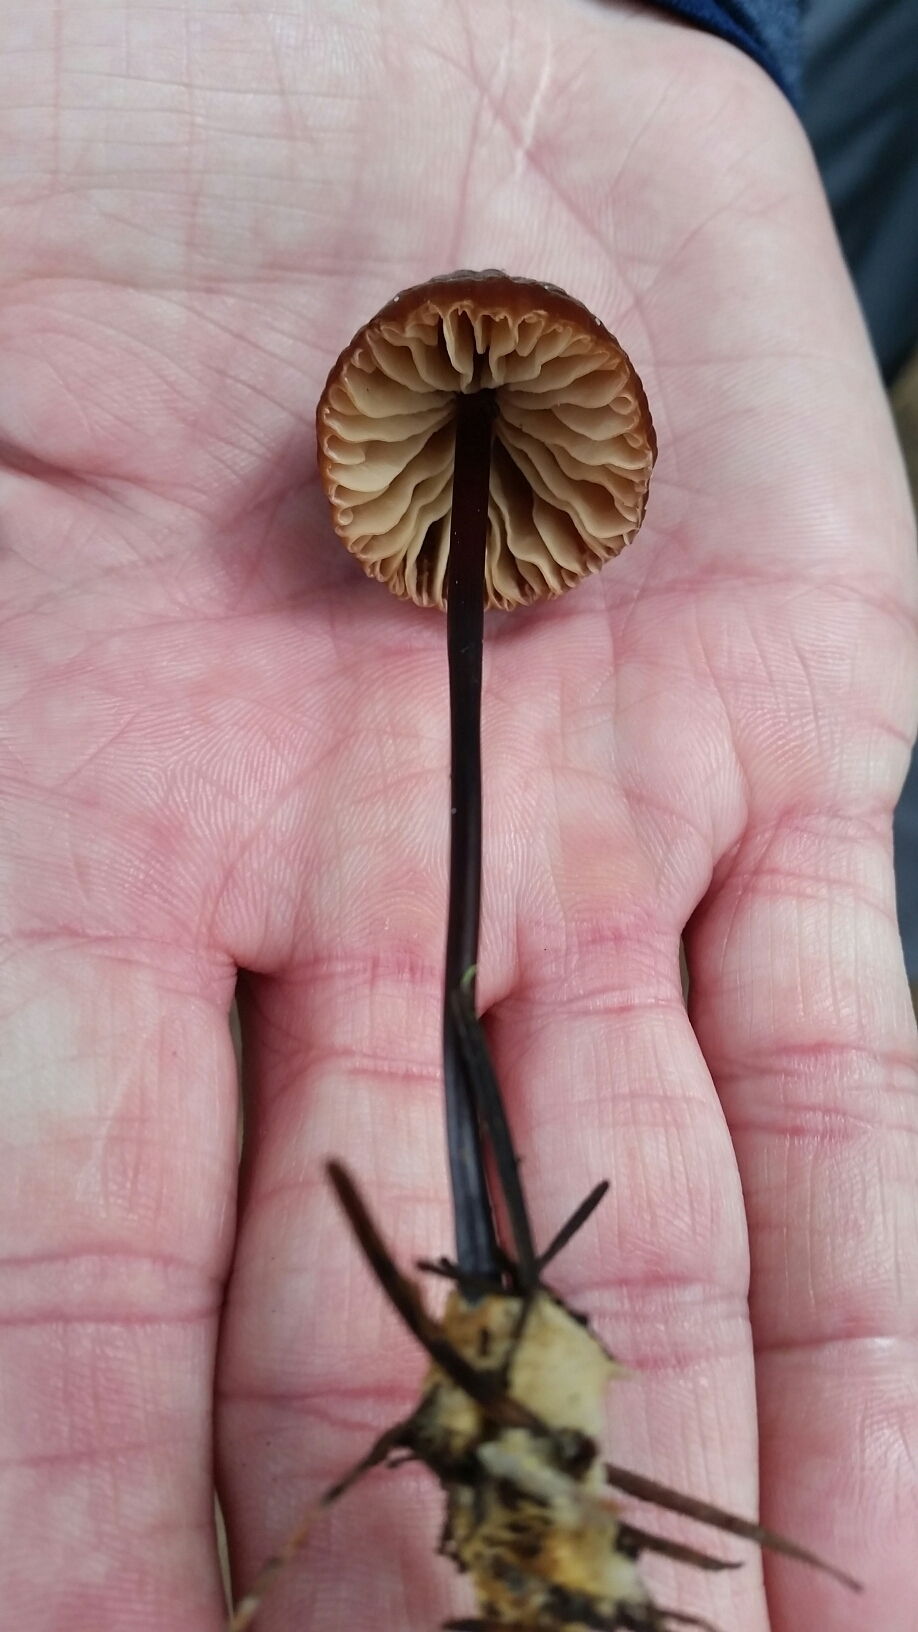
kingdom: Fungi
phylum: Basidiomycota
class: Agaricomycetes
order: Agaricales
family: Marasmiaceae
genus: Marasmius
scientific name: Marasmius plicatulus
